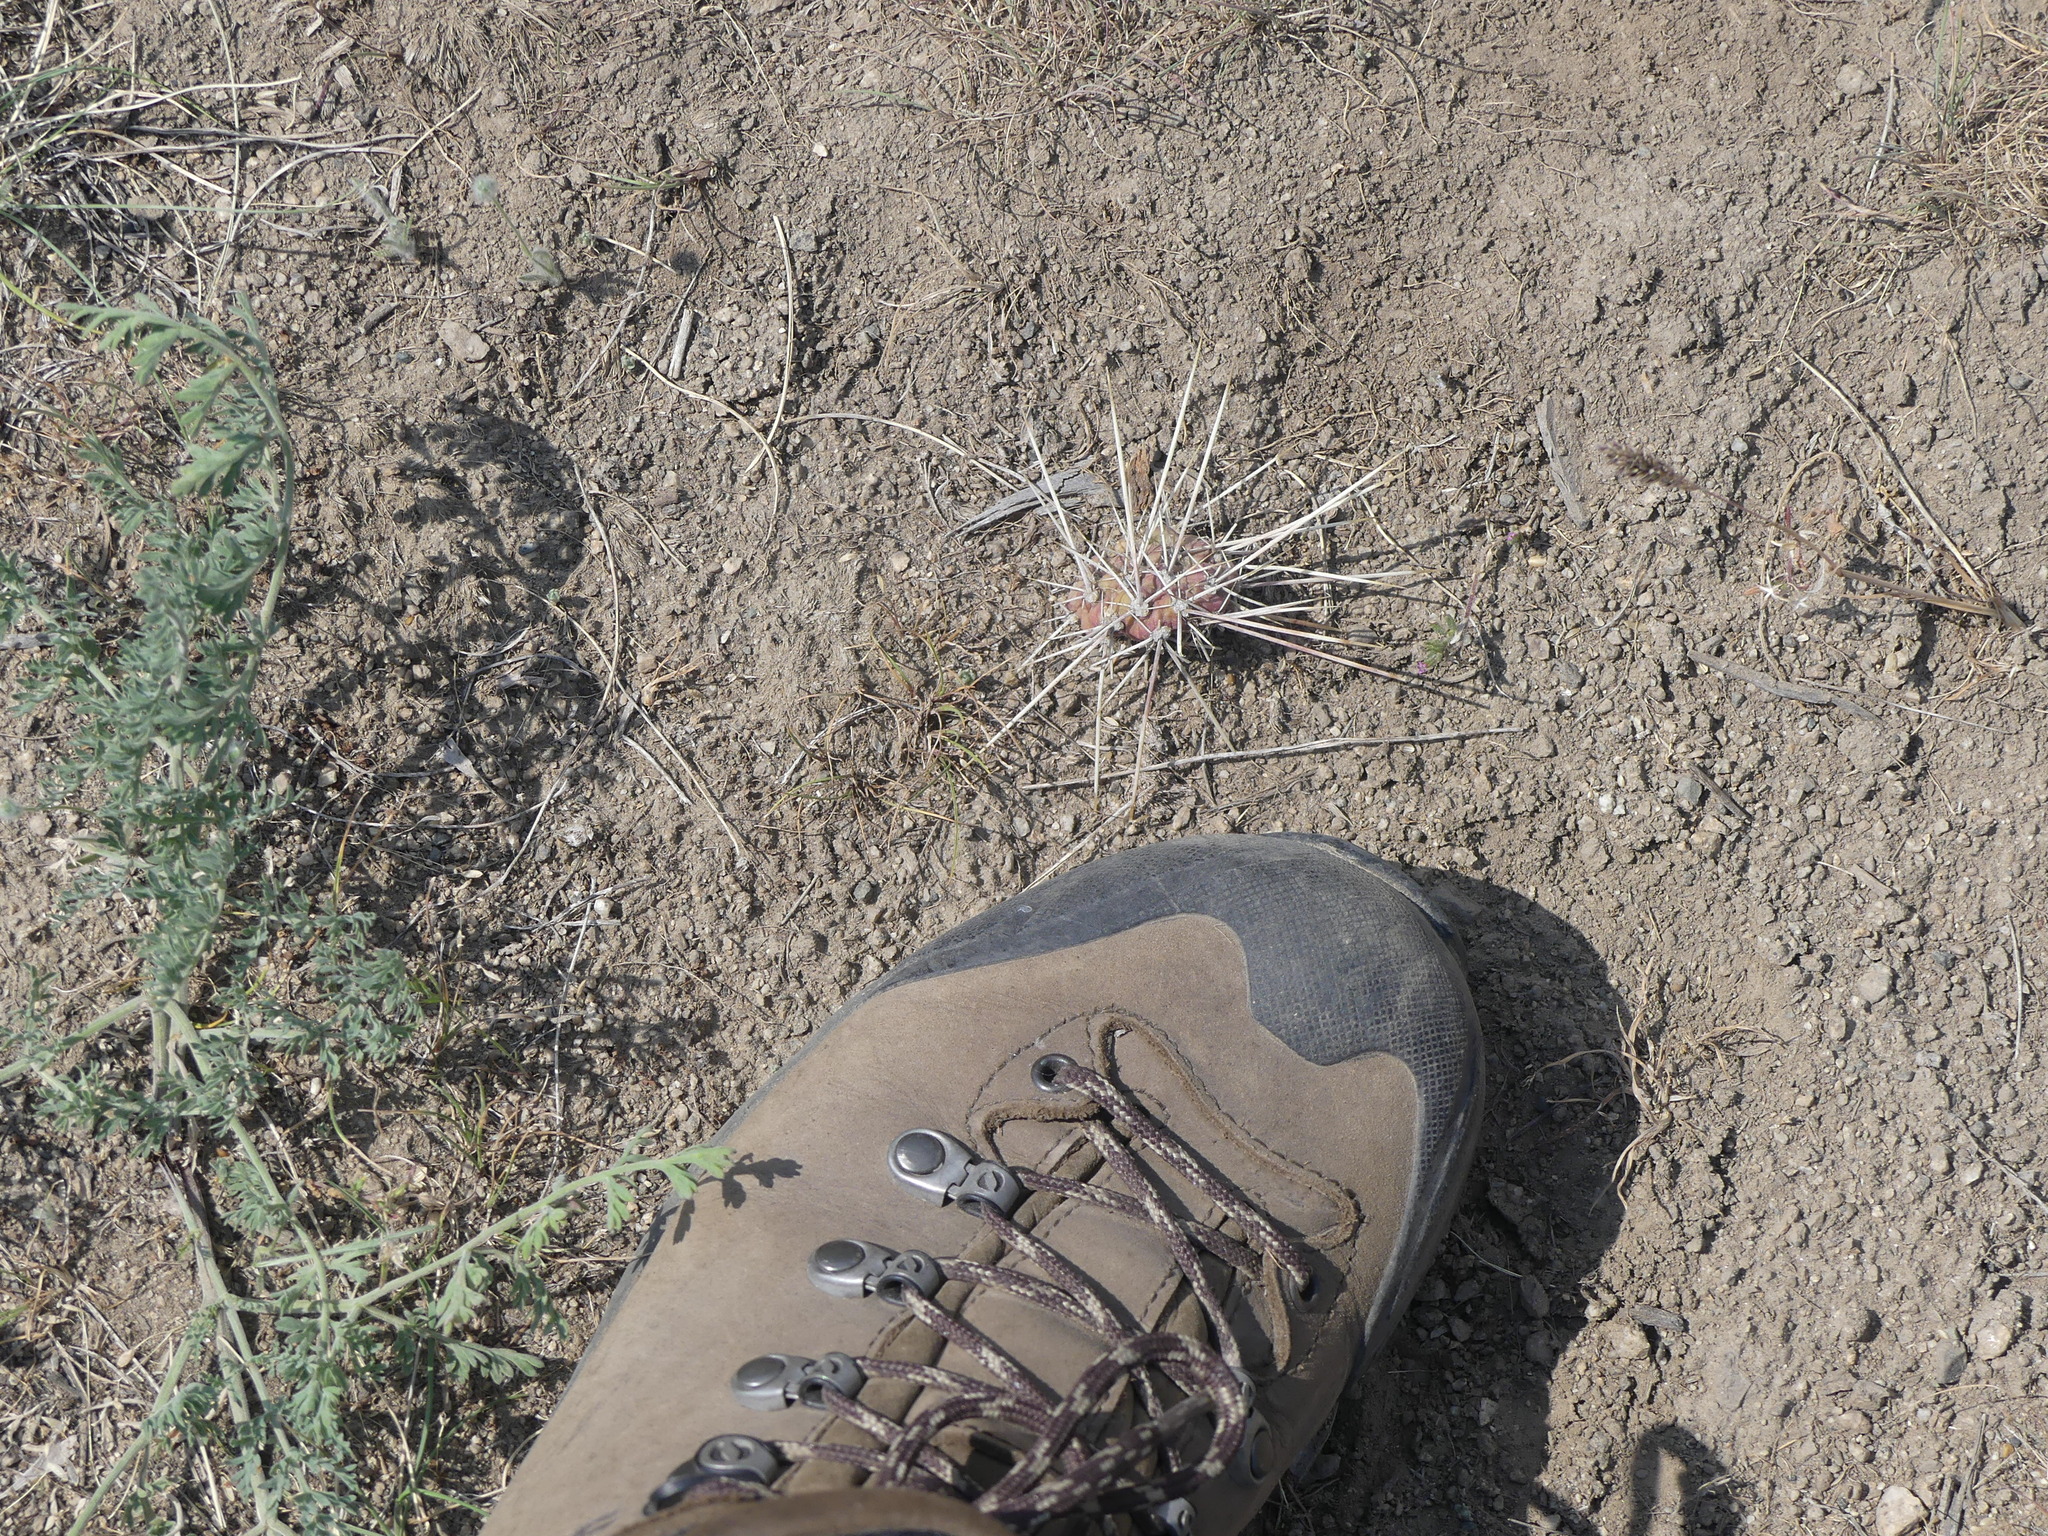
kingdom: Plantae
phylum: Tracheophyta
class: Magnoliopsida
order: Caryophyllales
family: Cactaceae
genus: Opuntia
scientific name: Opuntia fragilis
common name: Brittle cactus
